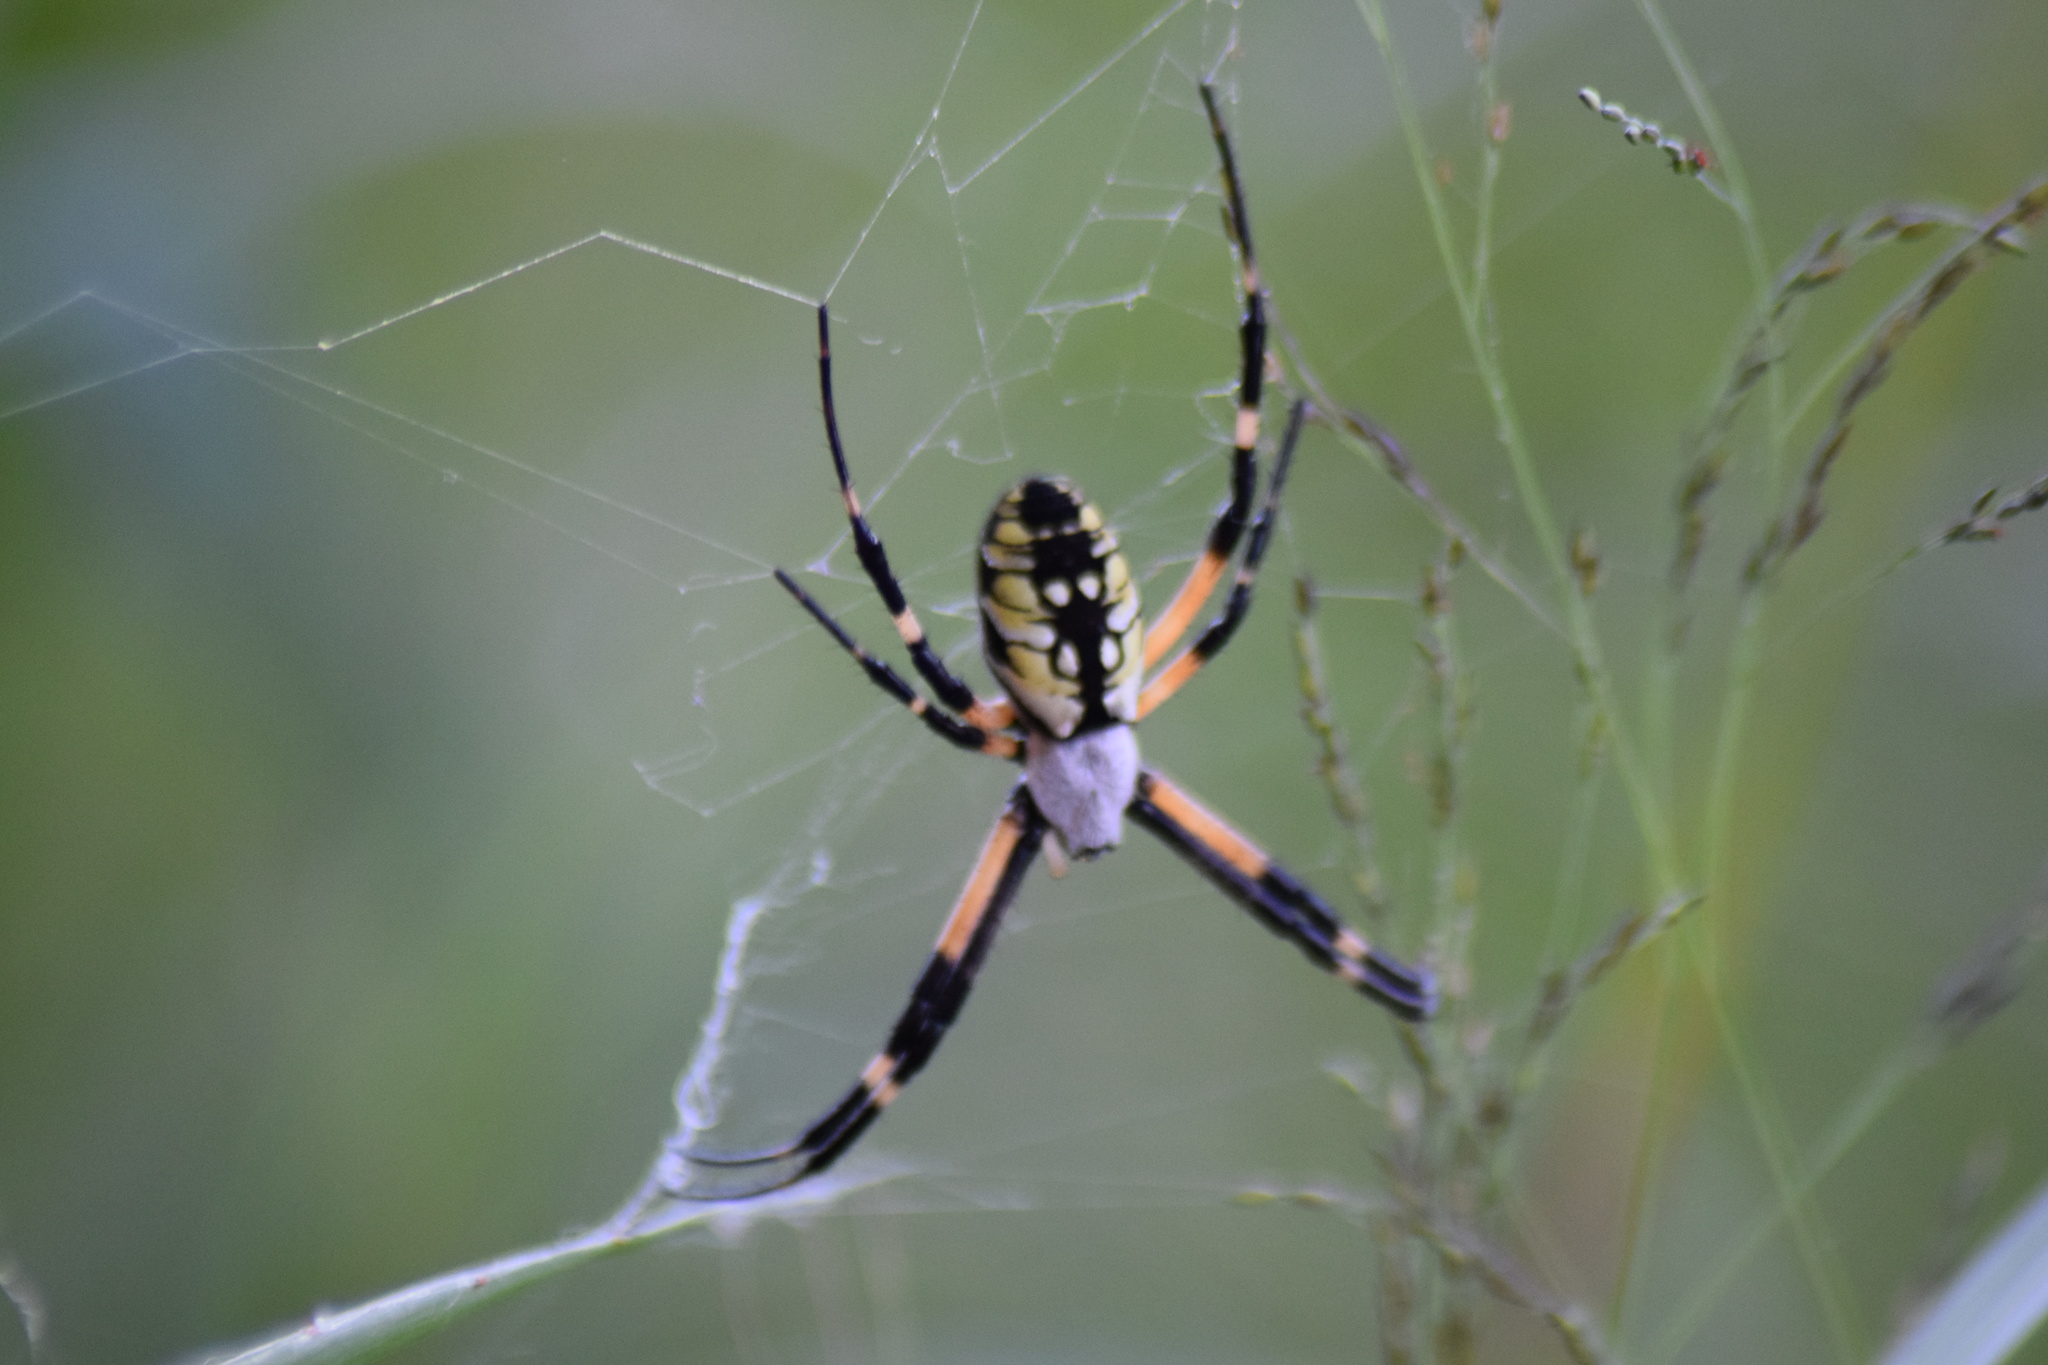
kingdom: Animalia
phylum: Arthropoda
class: Arachnida
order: Araneae
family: Araneidae
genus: Argiope
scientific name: Argiope aurantia
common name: Orb weavers
